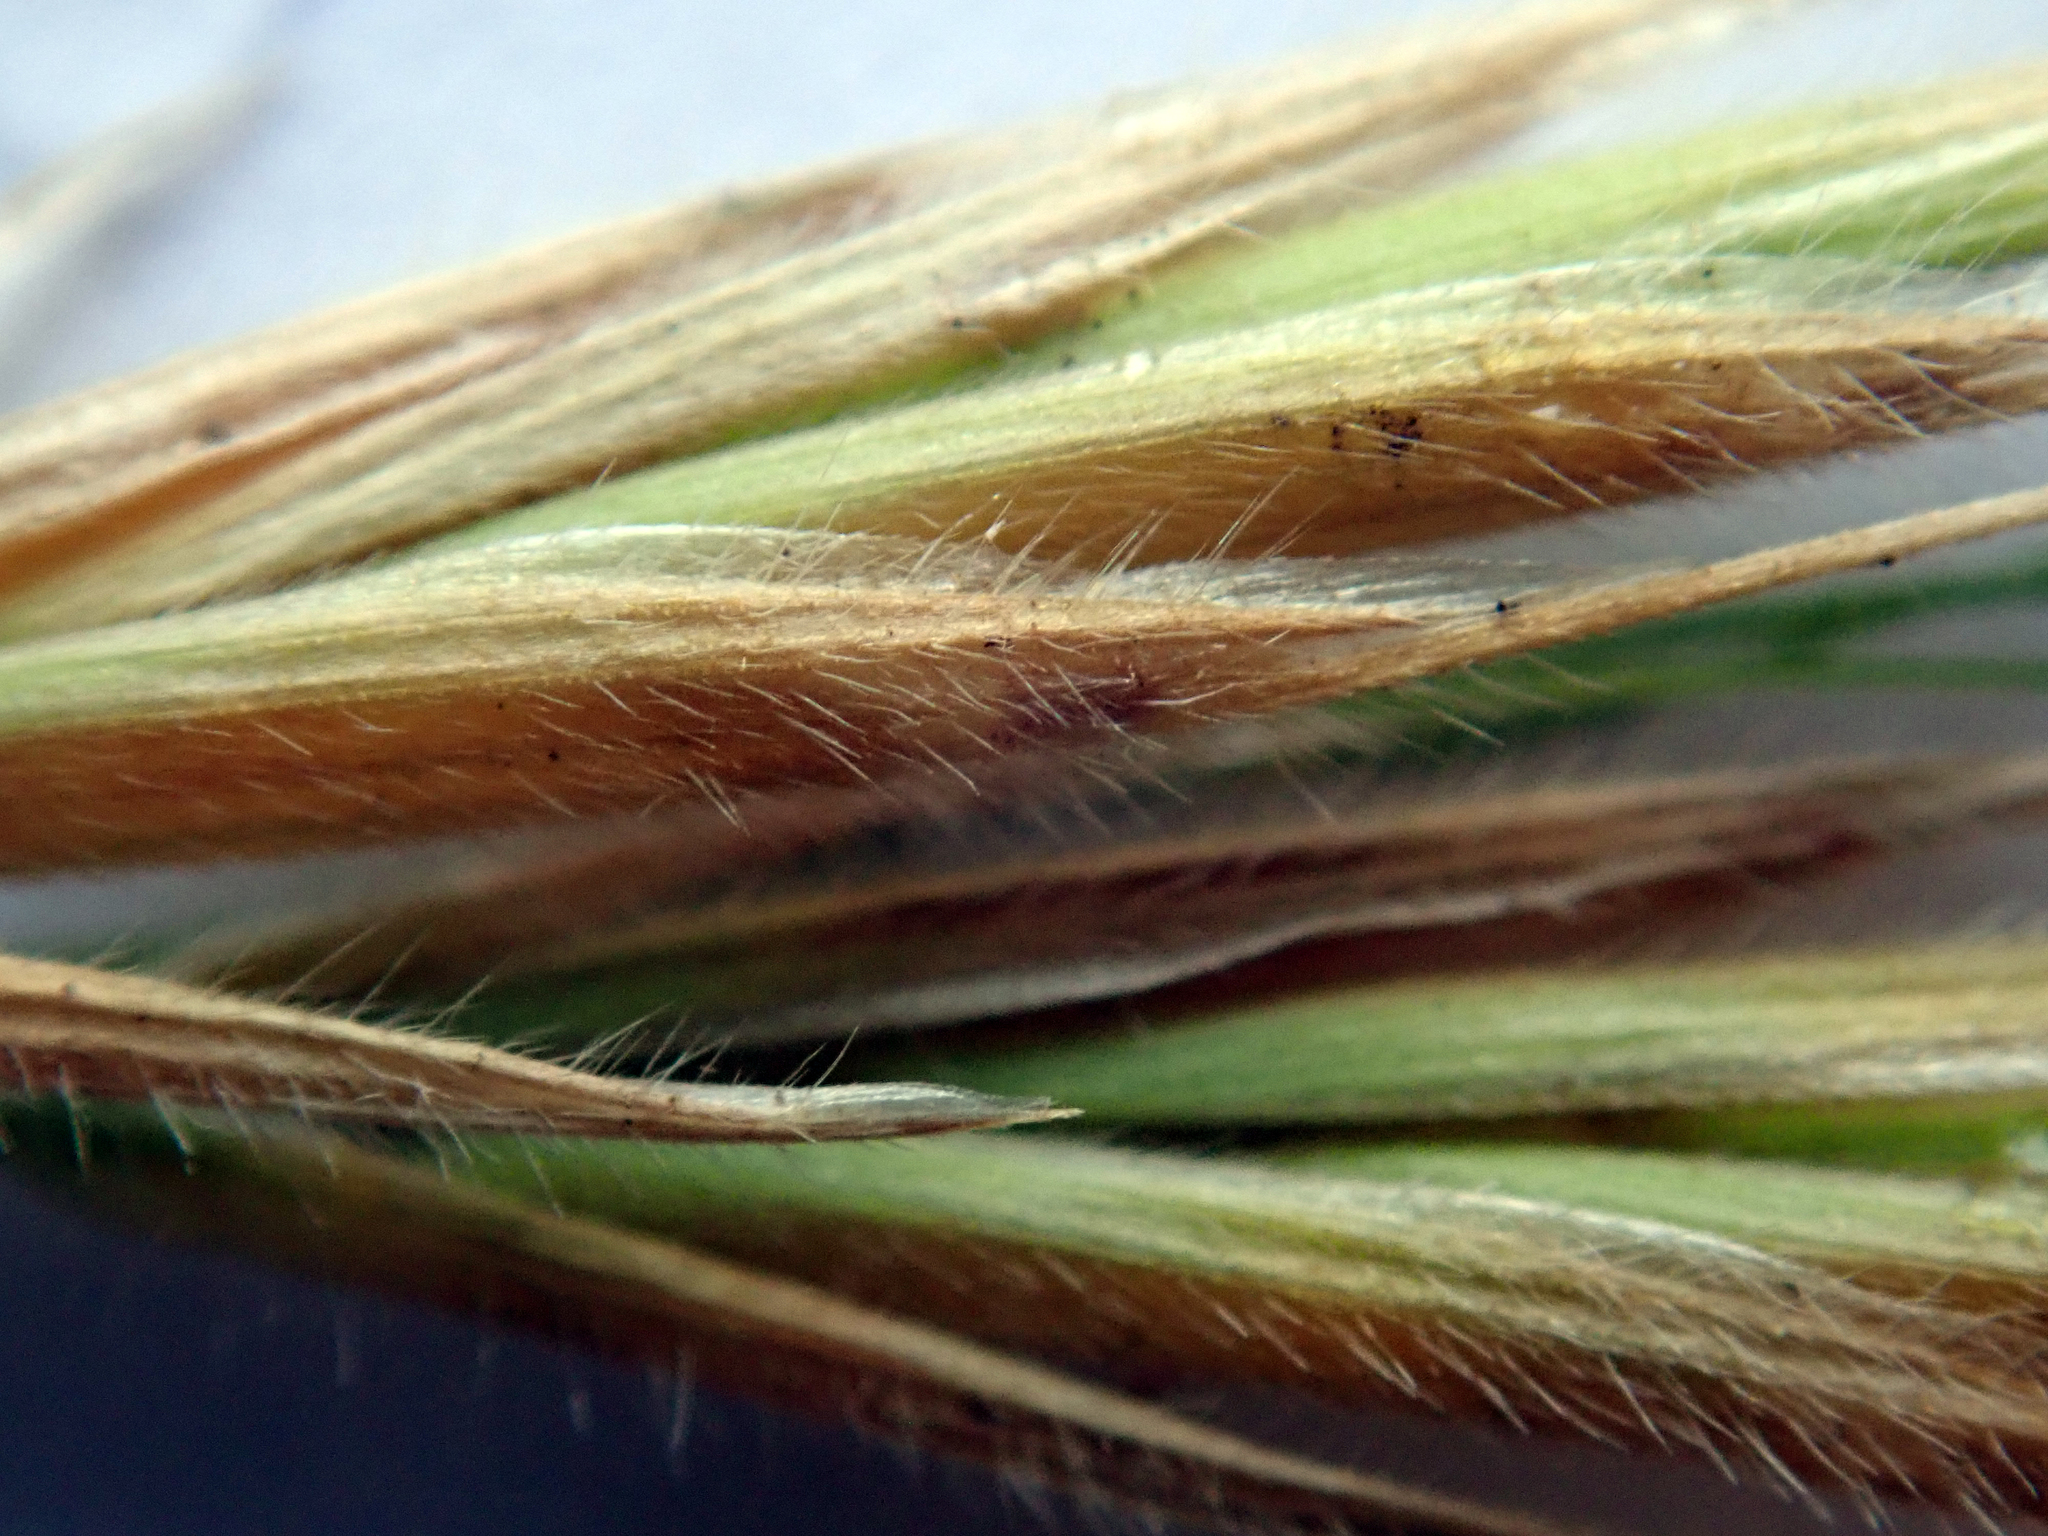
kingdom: Plantae
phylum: Tracheophyta
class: Liliopsida
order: Poales
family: Poaceae
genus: Bromus
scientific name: Bromus arenarius
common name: Australian brome
